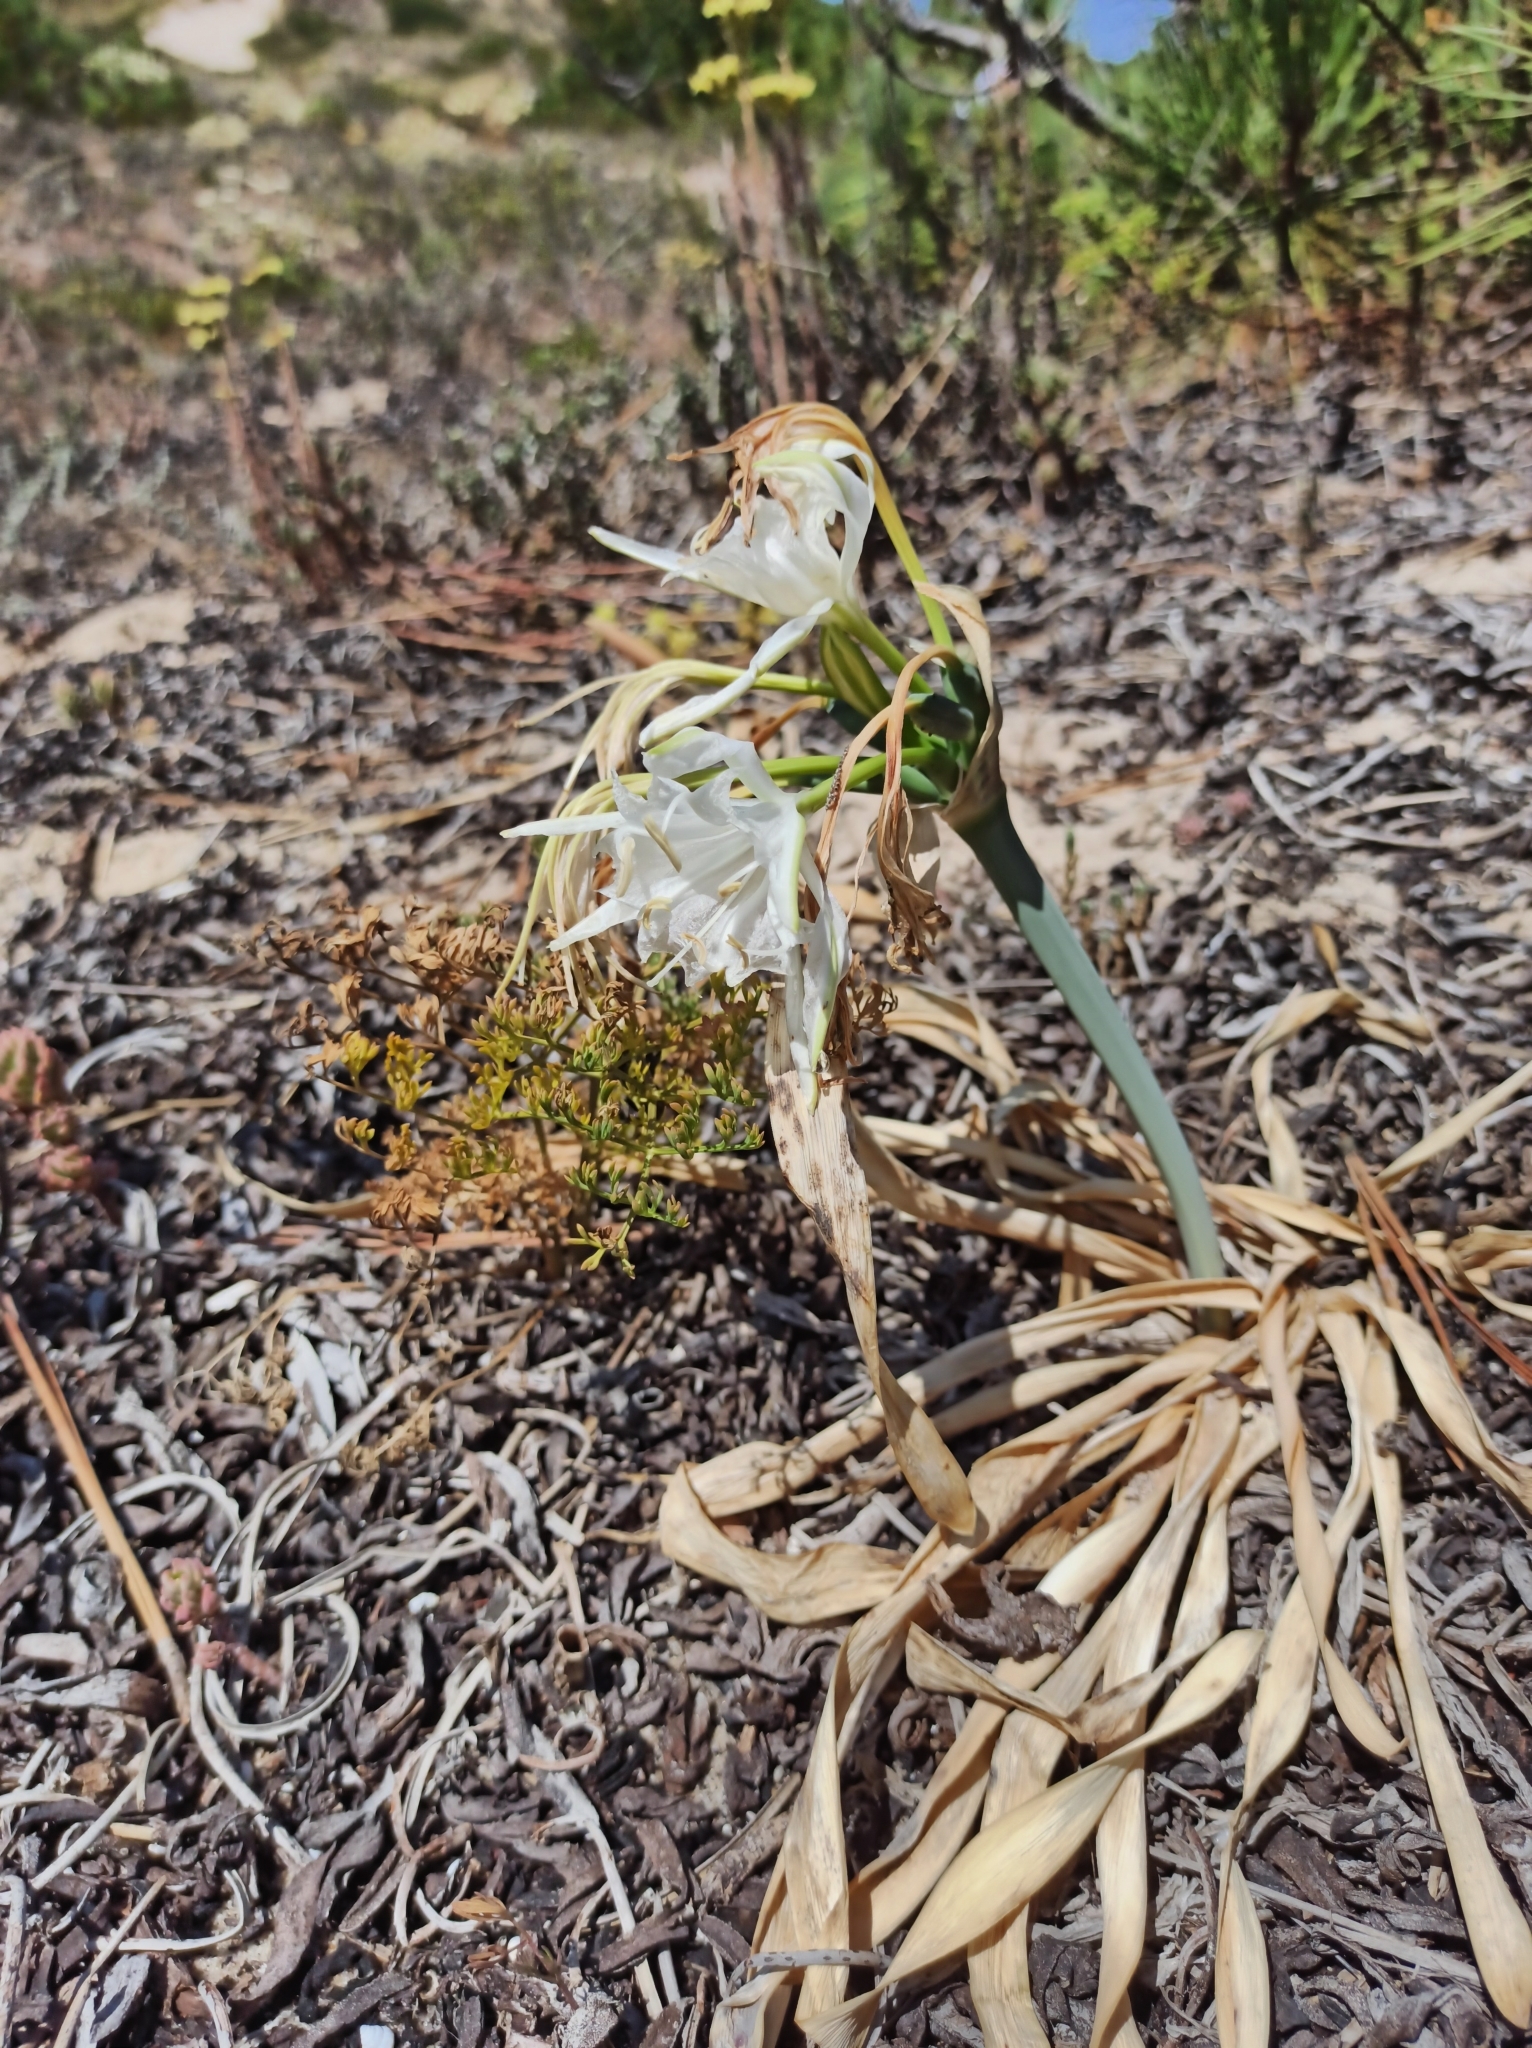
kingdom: Plantae
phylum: Tracheophyta
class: Liliopsida
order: Asparagales
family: Amaryllidaceae
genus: Pancratium
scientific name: Pancratium maritimum
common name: Sea-daffodil
